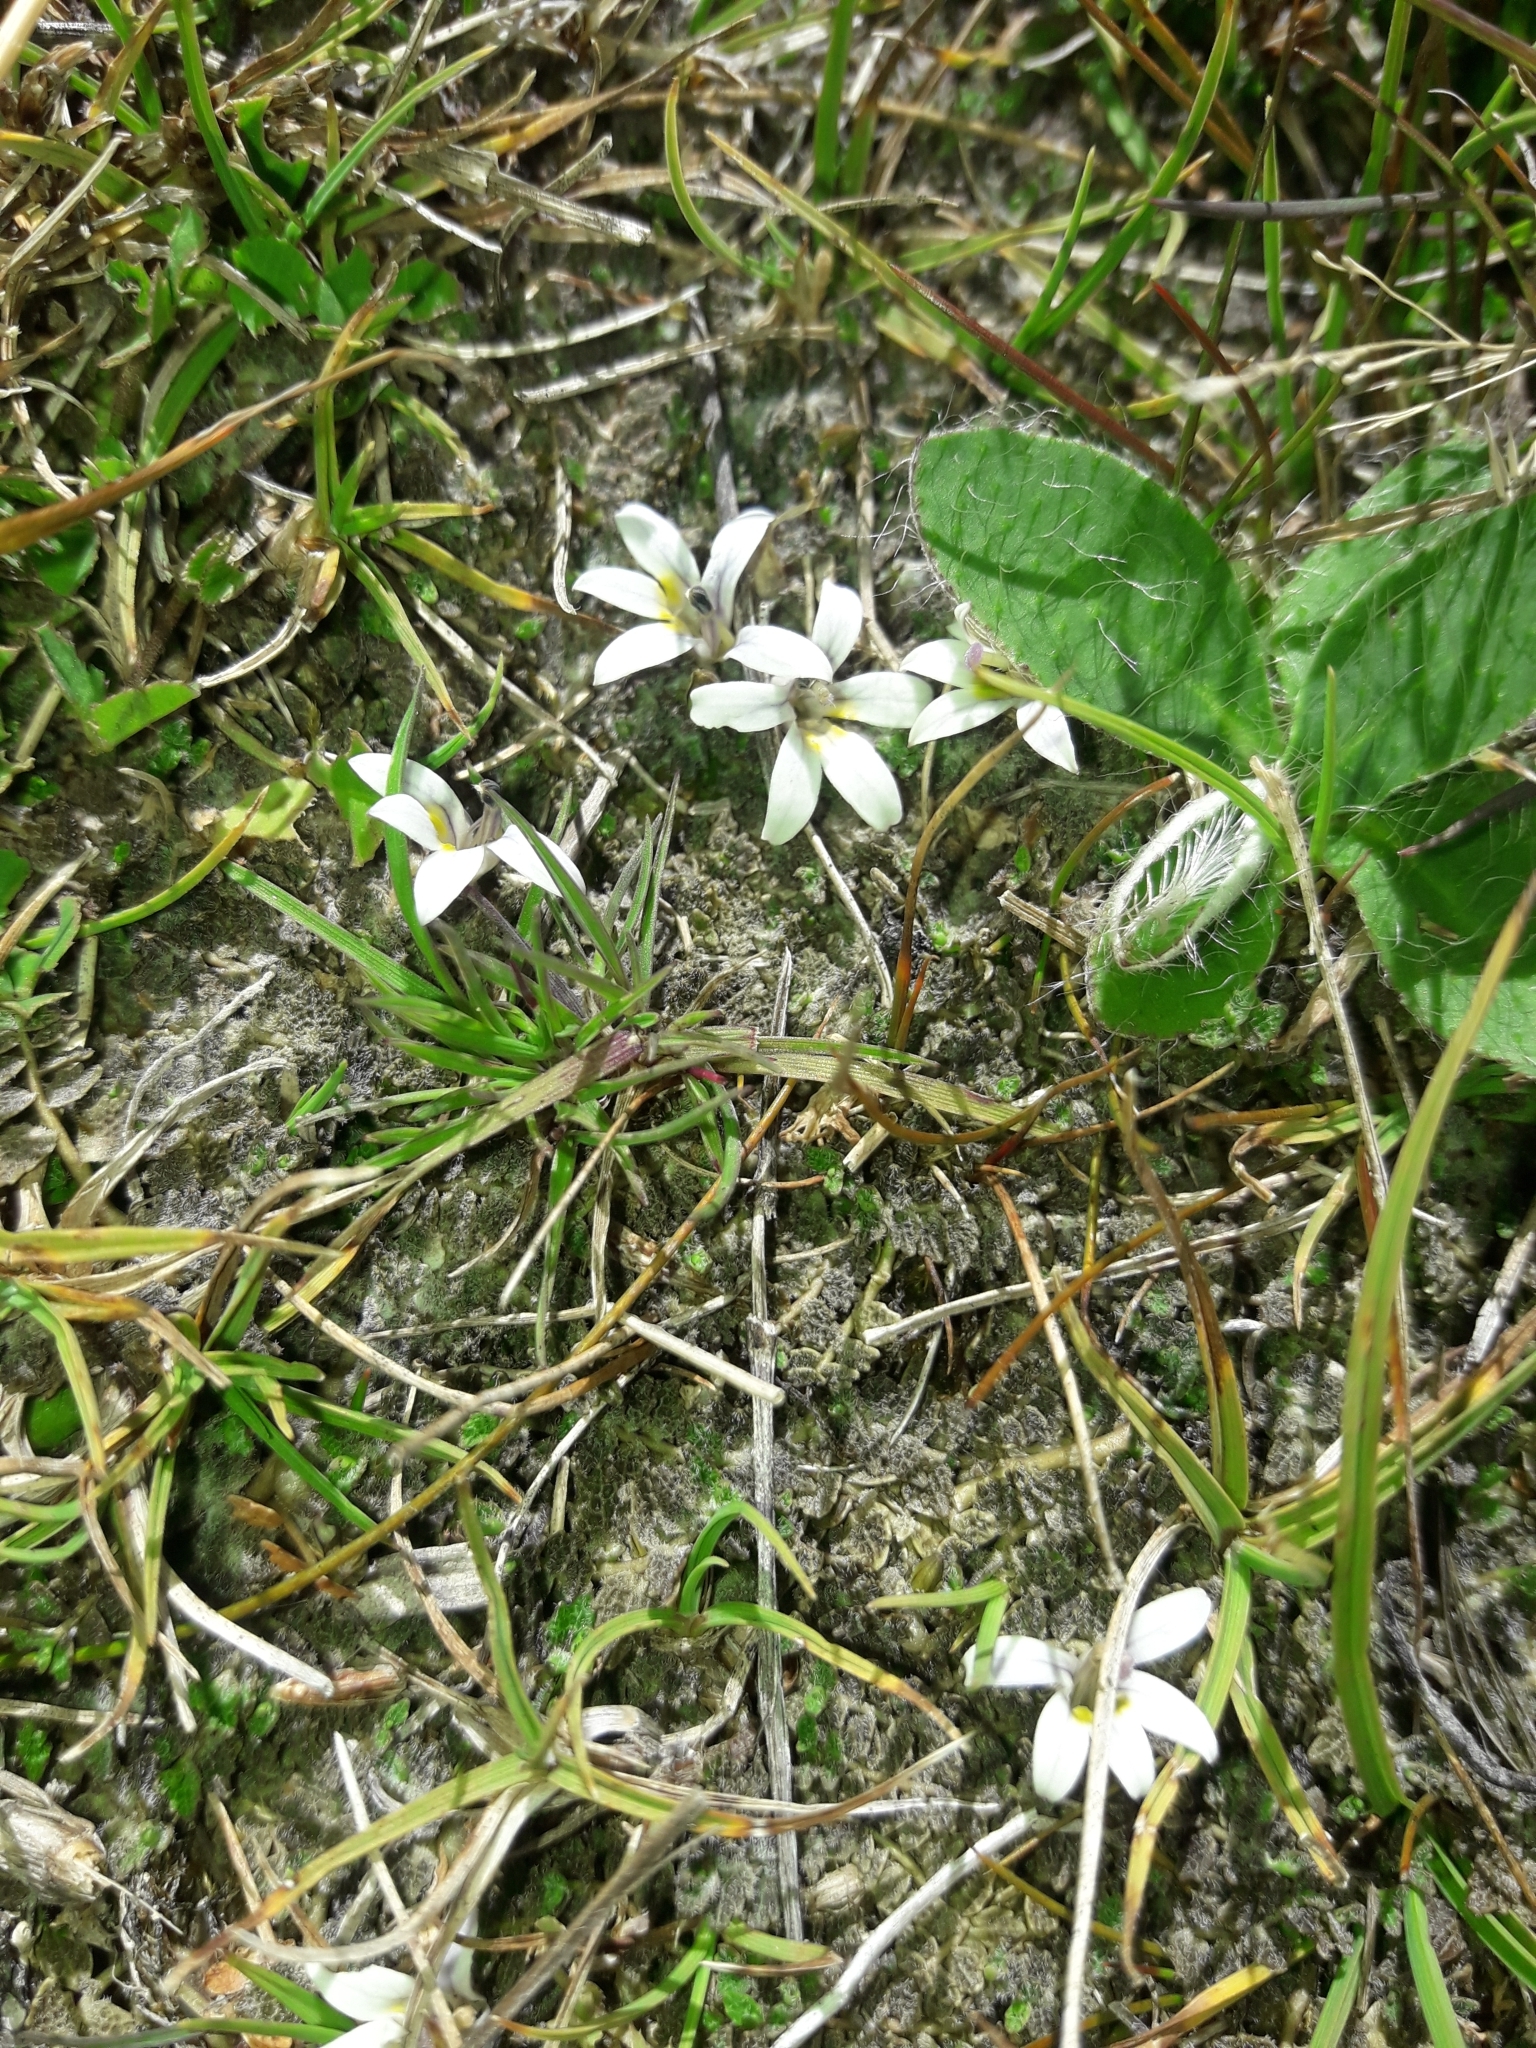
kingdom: Plantae
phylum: Tracheophyta
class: Magnoliopsida
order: Asterales
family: Campanulaceae
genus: Lobelia
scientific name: Lobelia perpusilla
